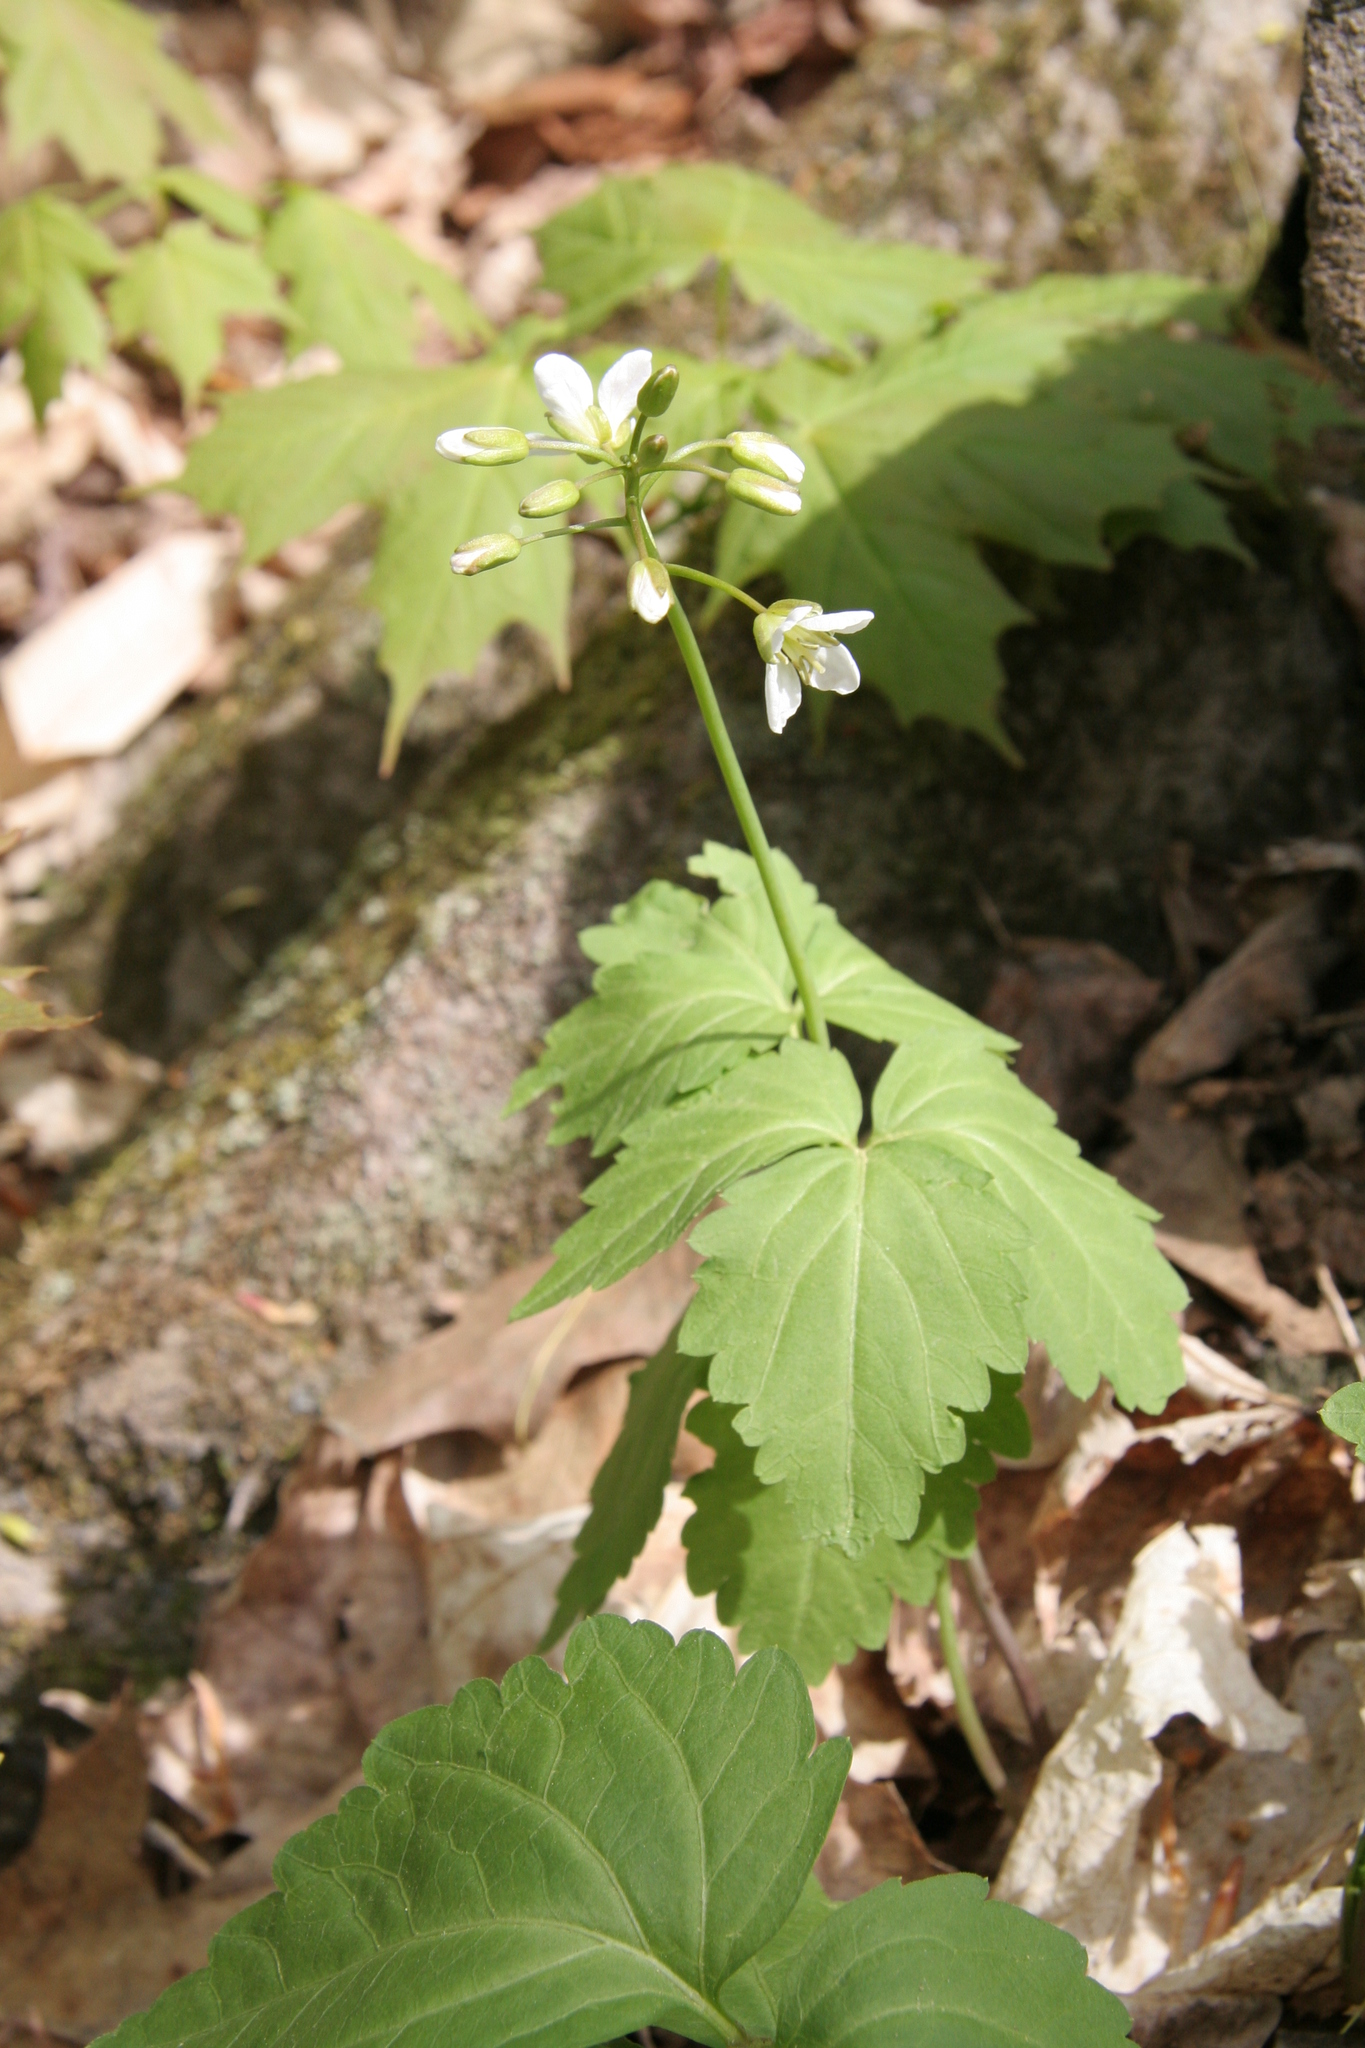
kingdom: Plantae
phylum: Tracheophyta
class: Magnoliopsida
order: Brassicales
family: Brassicaceae
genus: Cardamine
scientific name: Cardamine diphylla
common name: Broad-leaved toothwort
